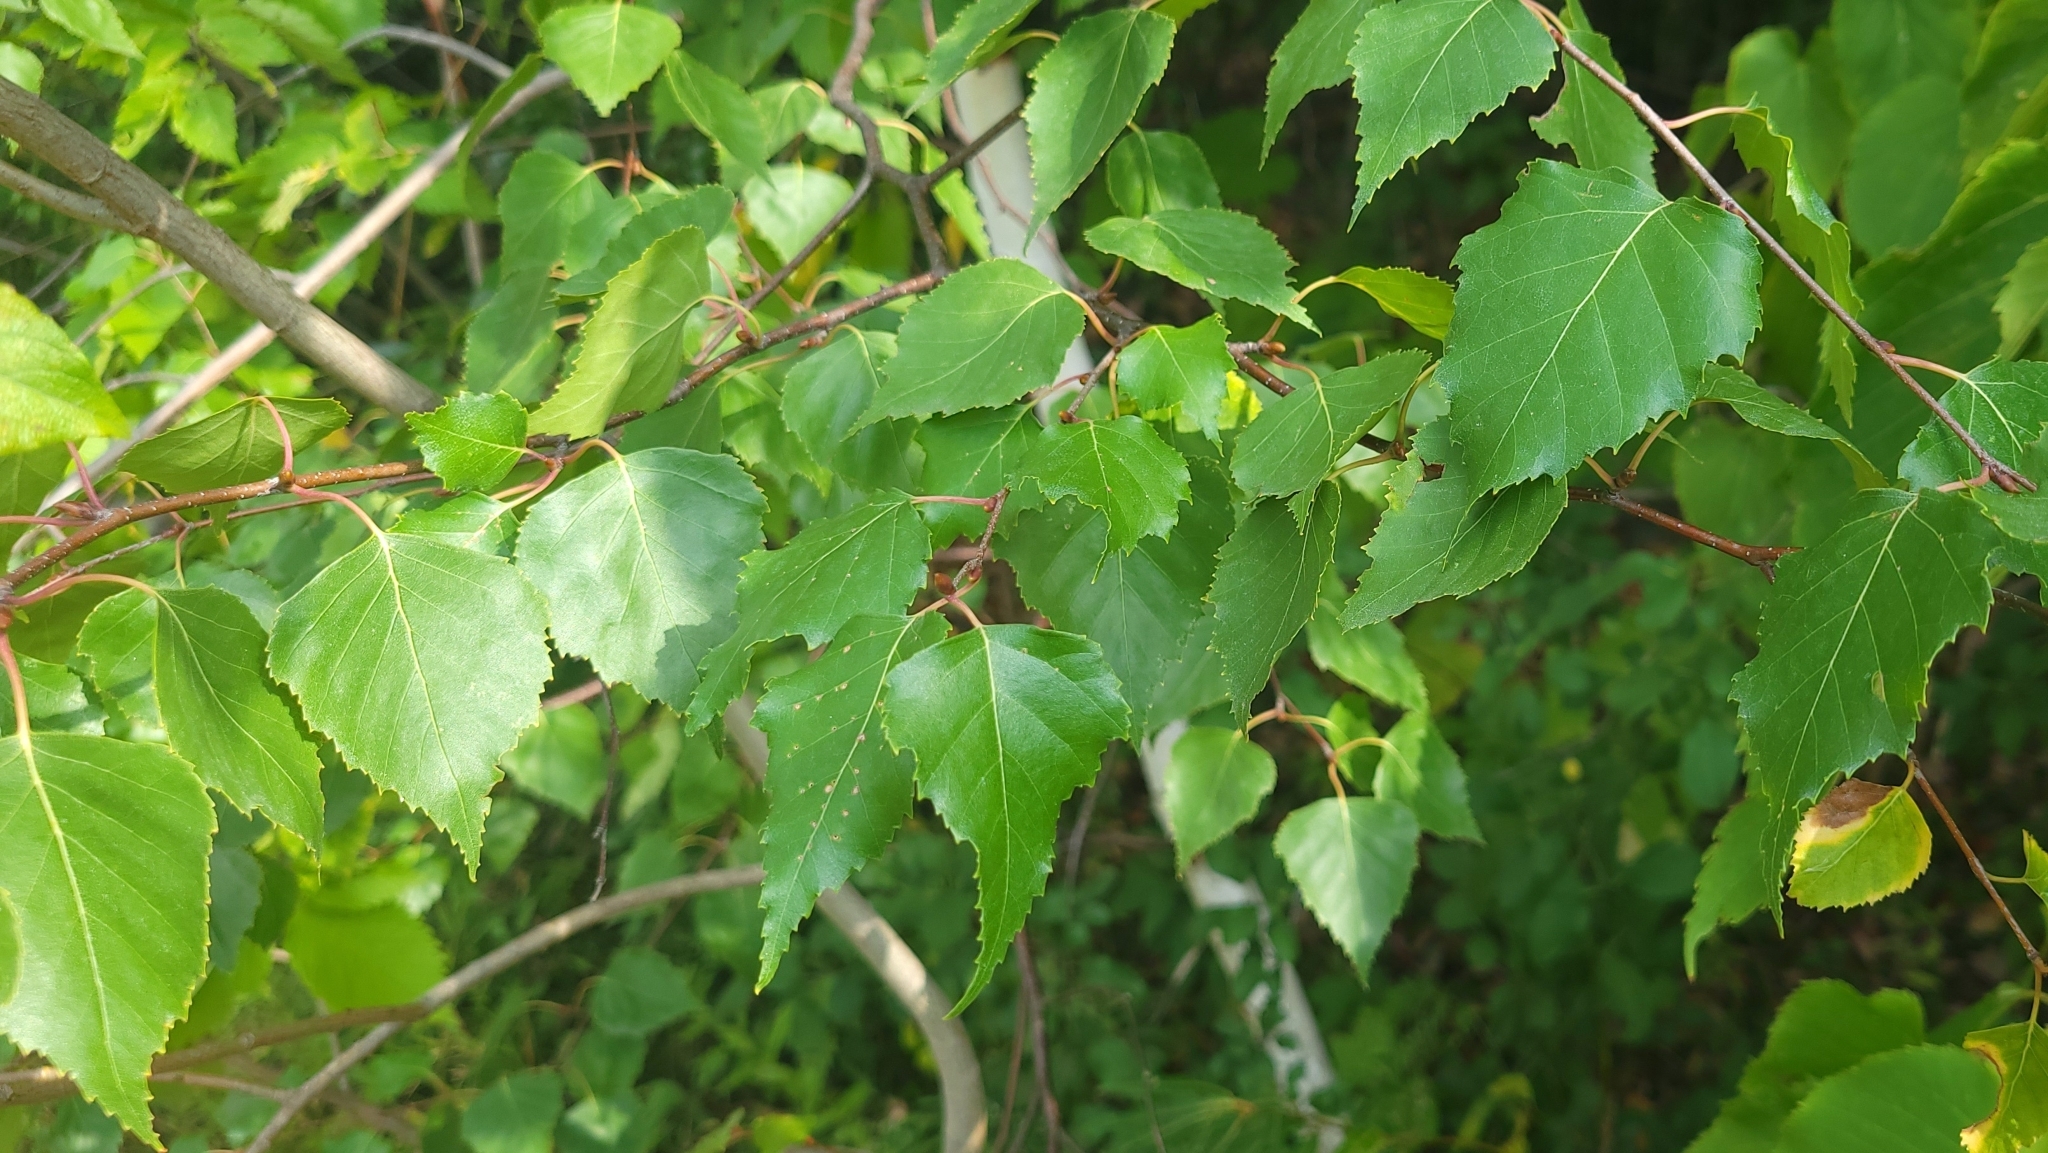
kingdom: Plantae
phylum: Tracheophyta
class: Magnoliopsida
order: Fagales
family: Betulaceae
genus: Betula
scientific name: Betula populifolia
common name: Fire birch
